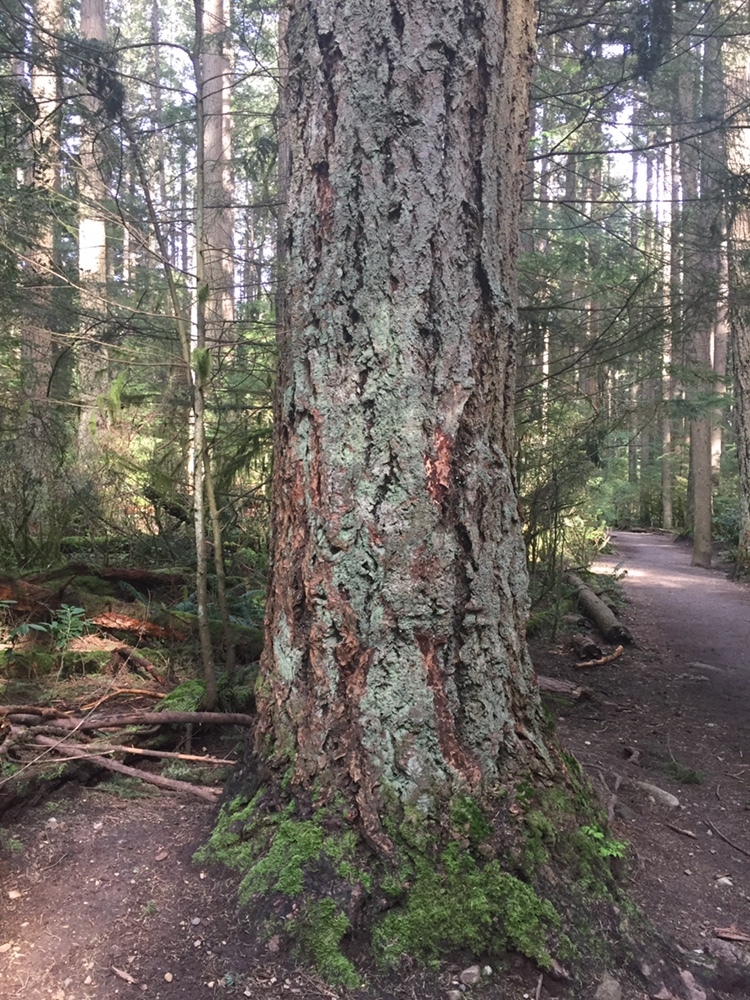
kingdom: Plantae
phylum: Tracheophyta
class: Pinopsida
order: Pinales
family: Pinaceae
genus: Pseudotsuga
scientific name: Pseudotsuga menziesii
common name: Douglas fir
